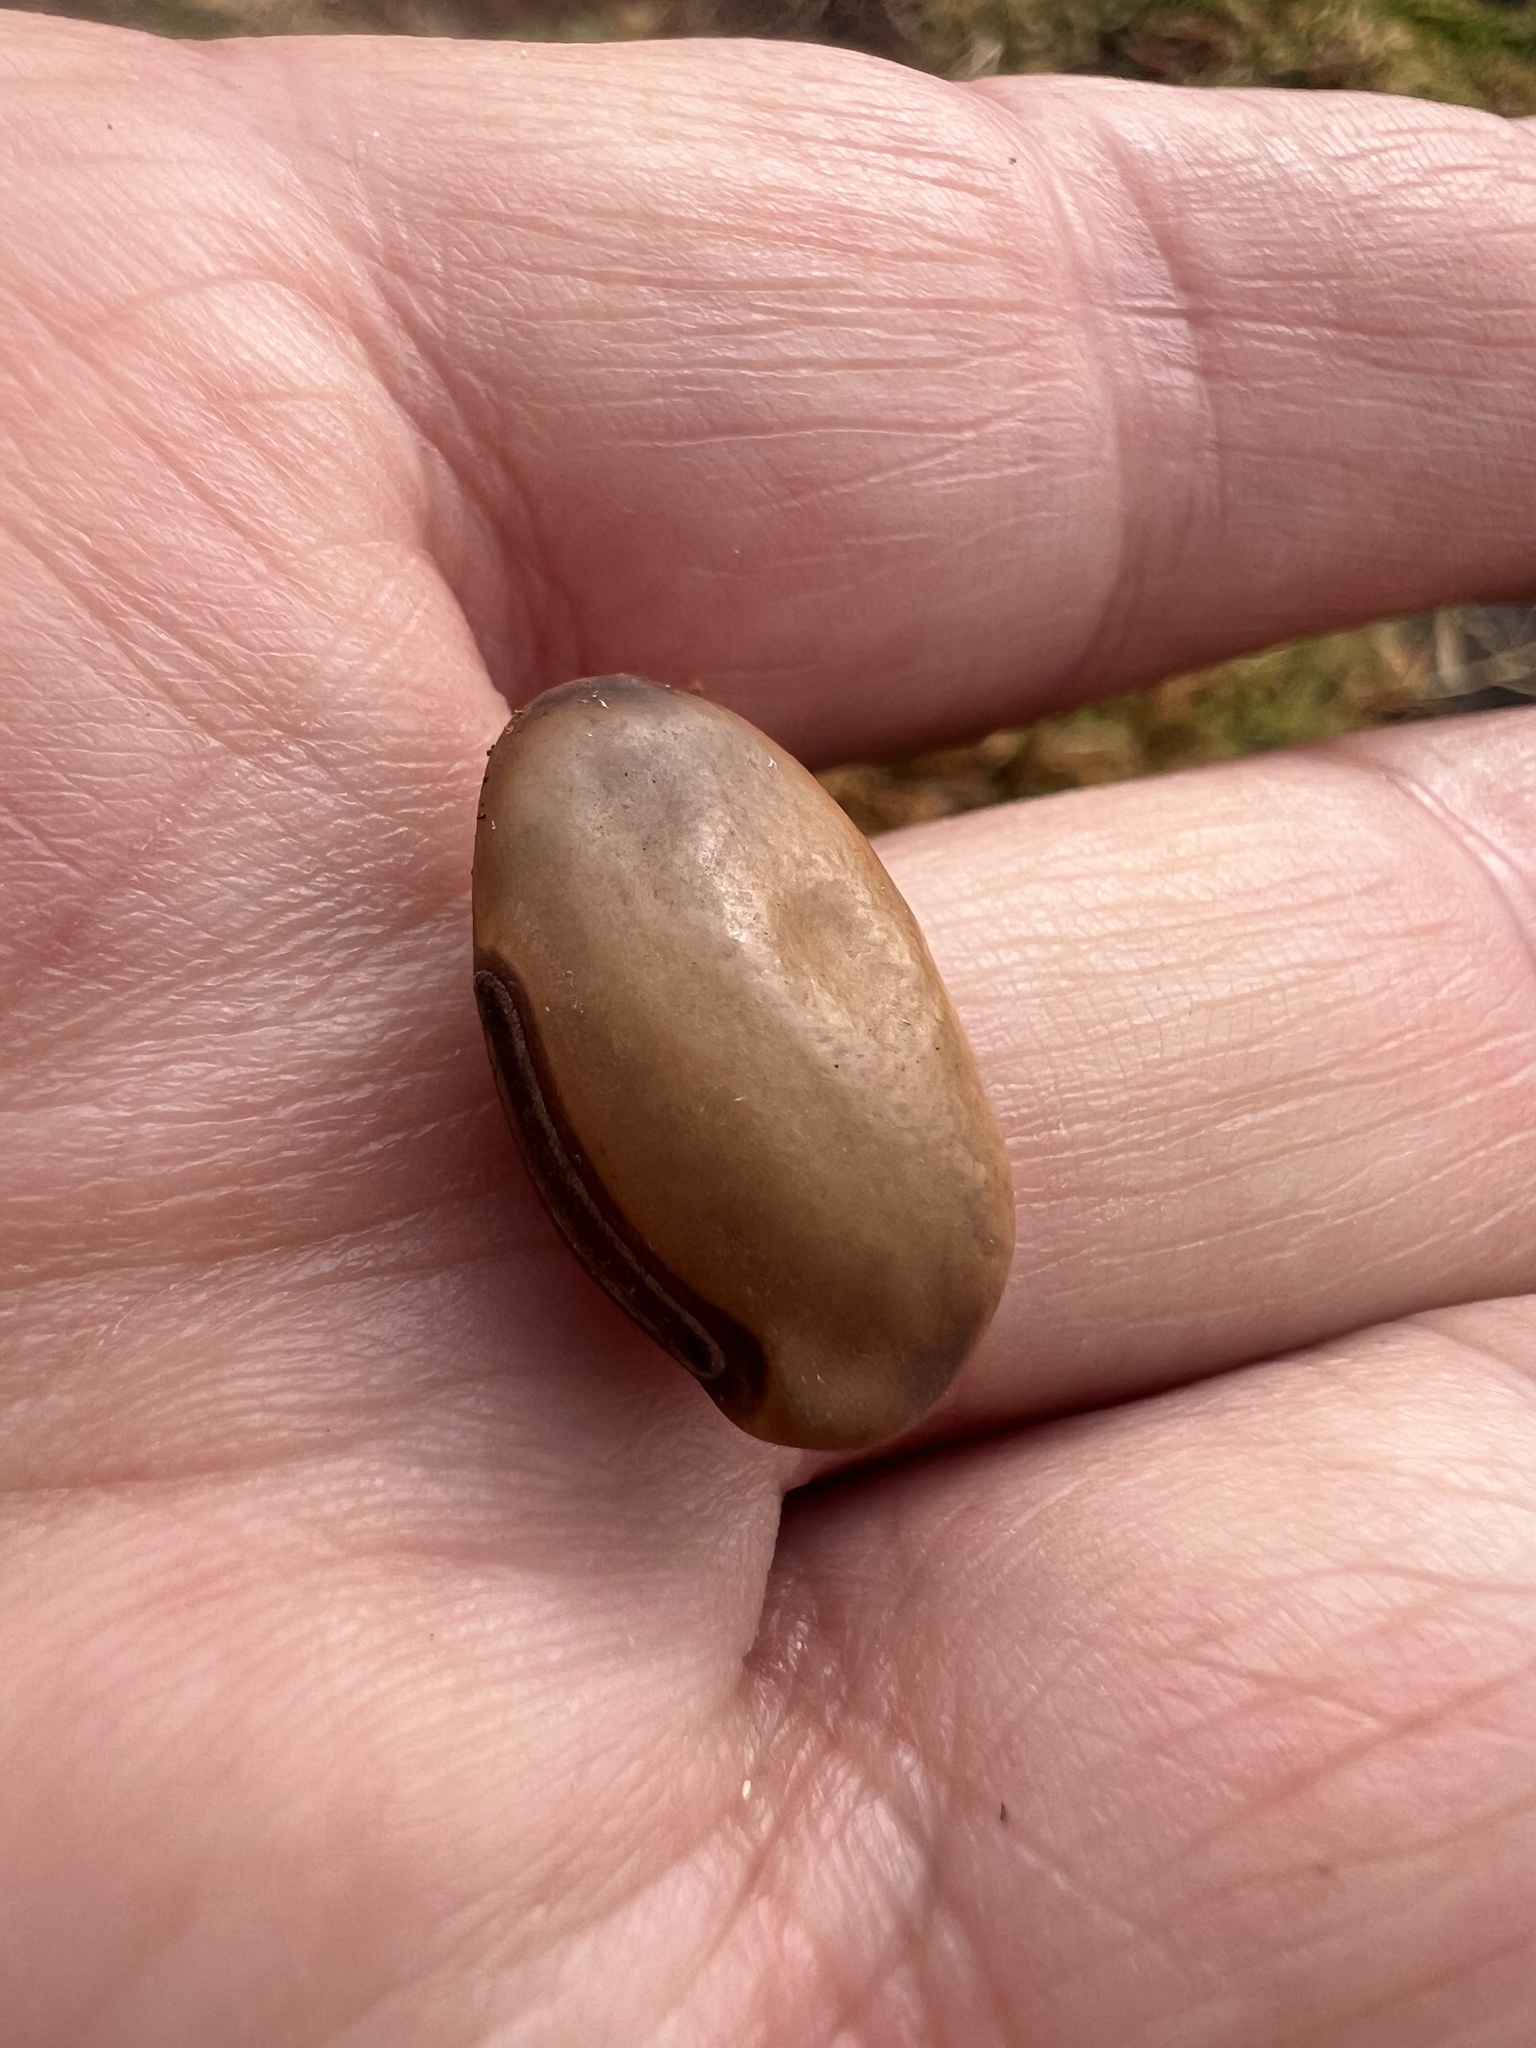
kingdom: Plantae
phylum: Tracheophyta
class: Magnoliopsida
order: Fabales
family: Fabaceae
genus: Mucuna
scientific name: Mucuna gigantea
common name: Black-bean
